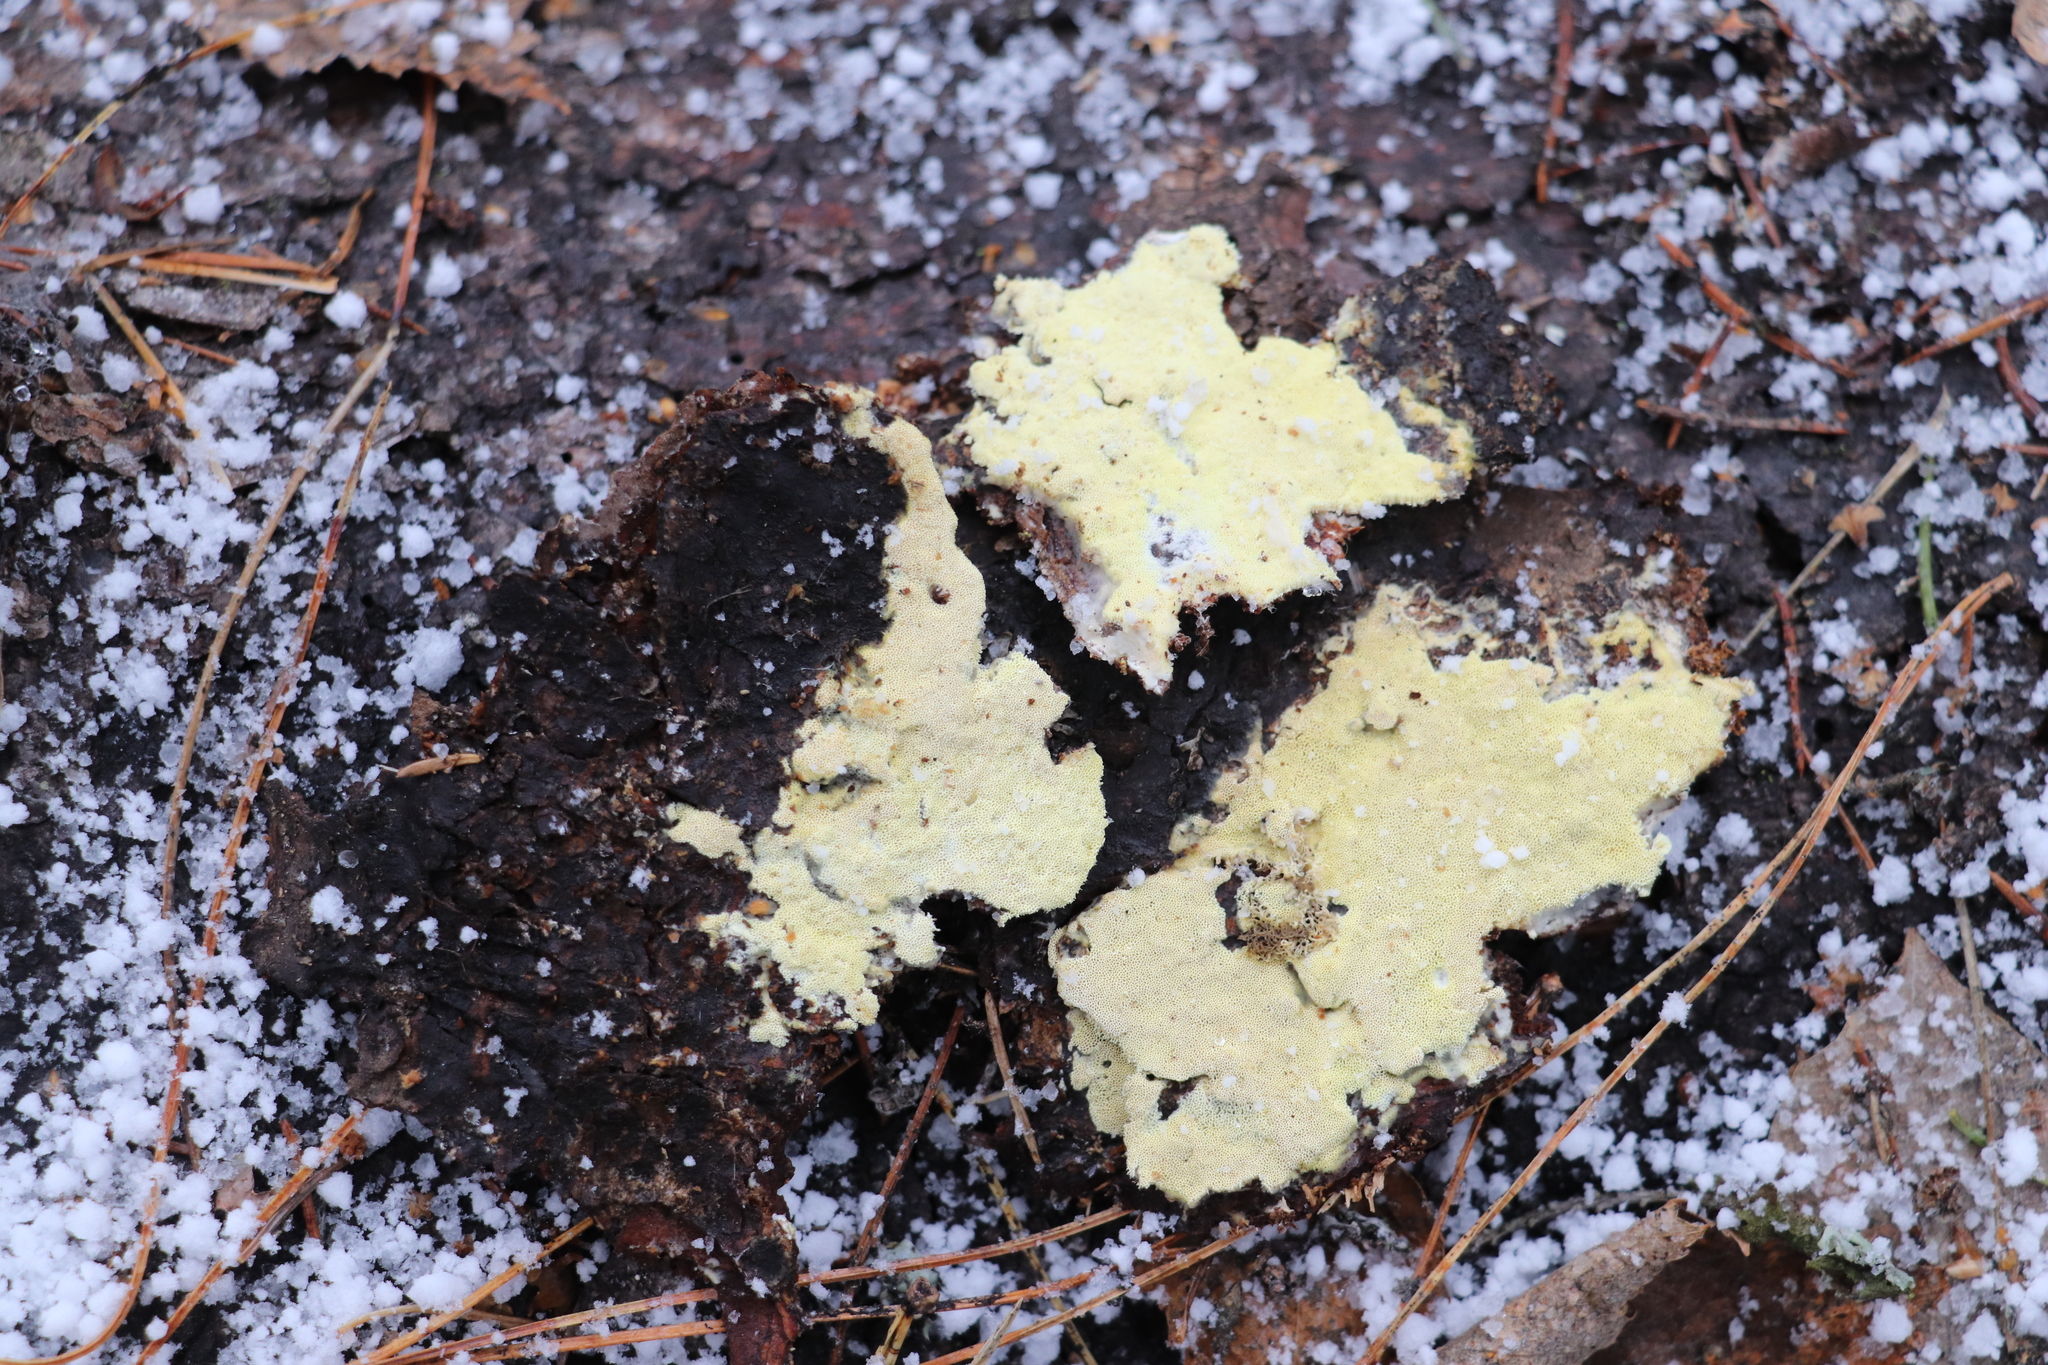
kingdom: Fungi
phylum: Basidiomycota
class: Agaricomycetes
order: Polyporales
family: Fomitopsidaceae
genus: Daedalea
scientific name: Daedalea xantha
